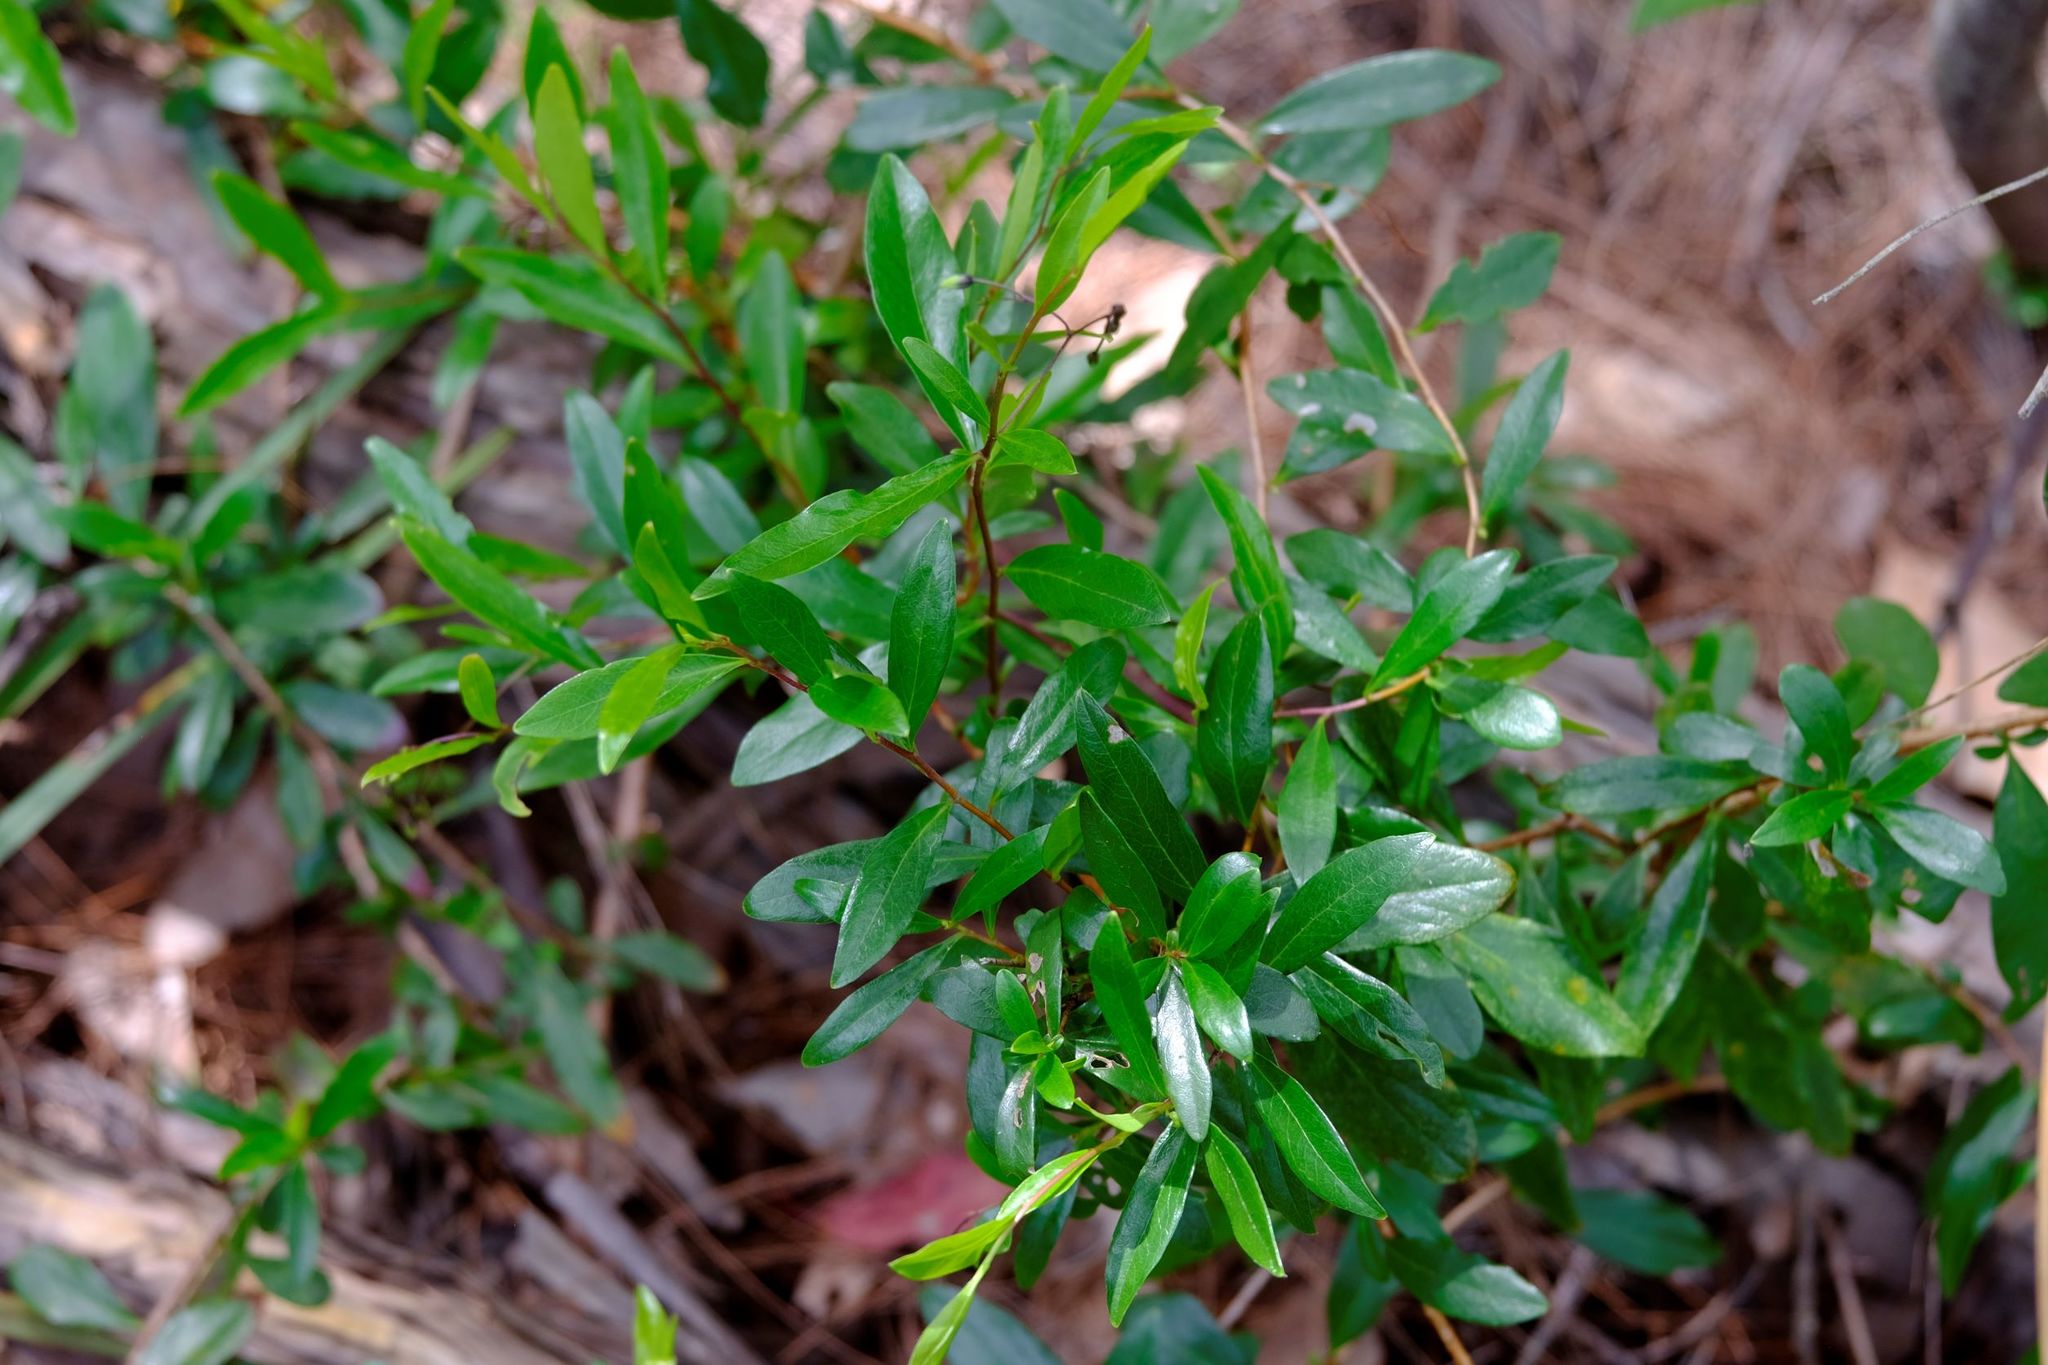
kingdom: Plantae
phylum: Tracheophyta
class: Magnoliopsida
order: Apiales
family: Pittosporaceae
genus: Billardiera
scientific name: Billardiera fusiformis
